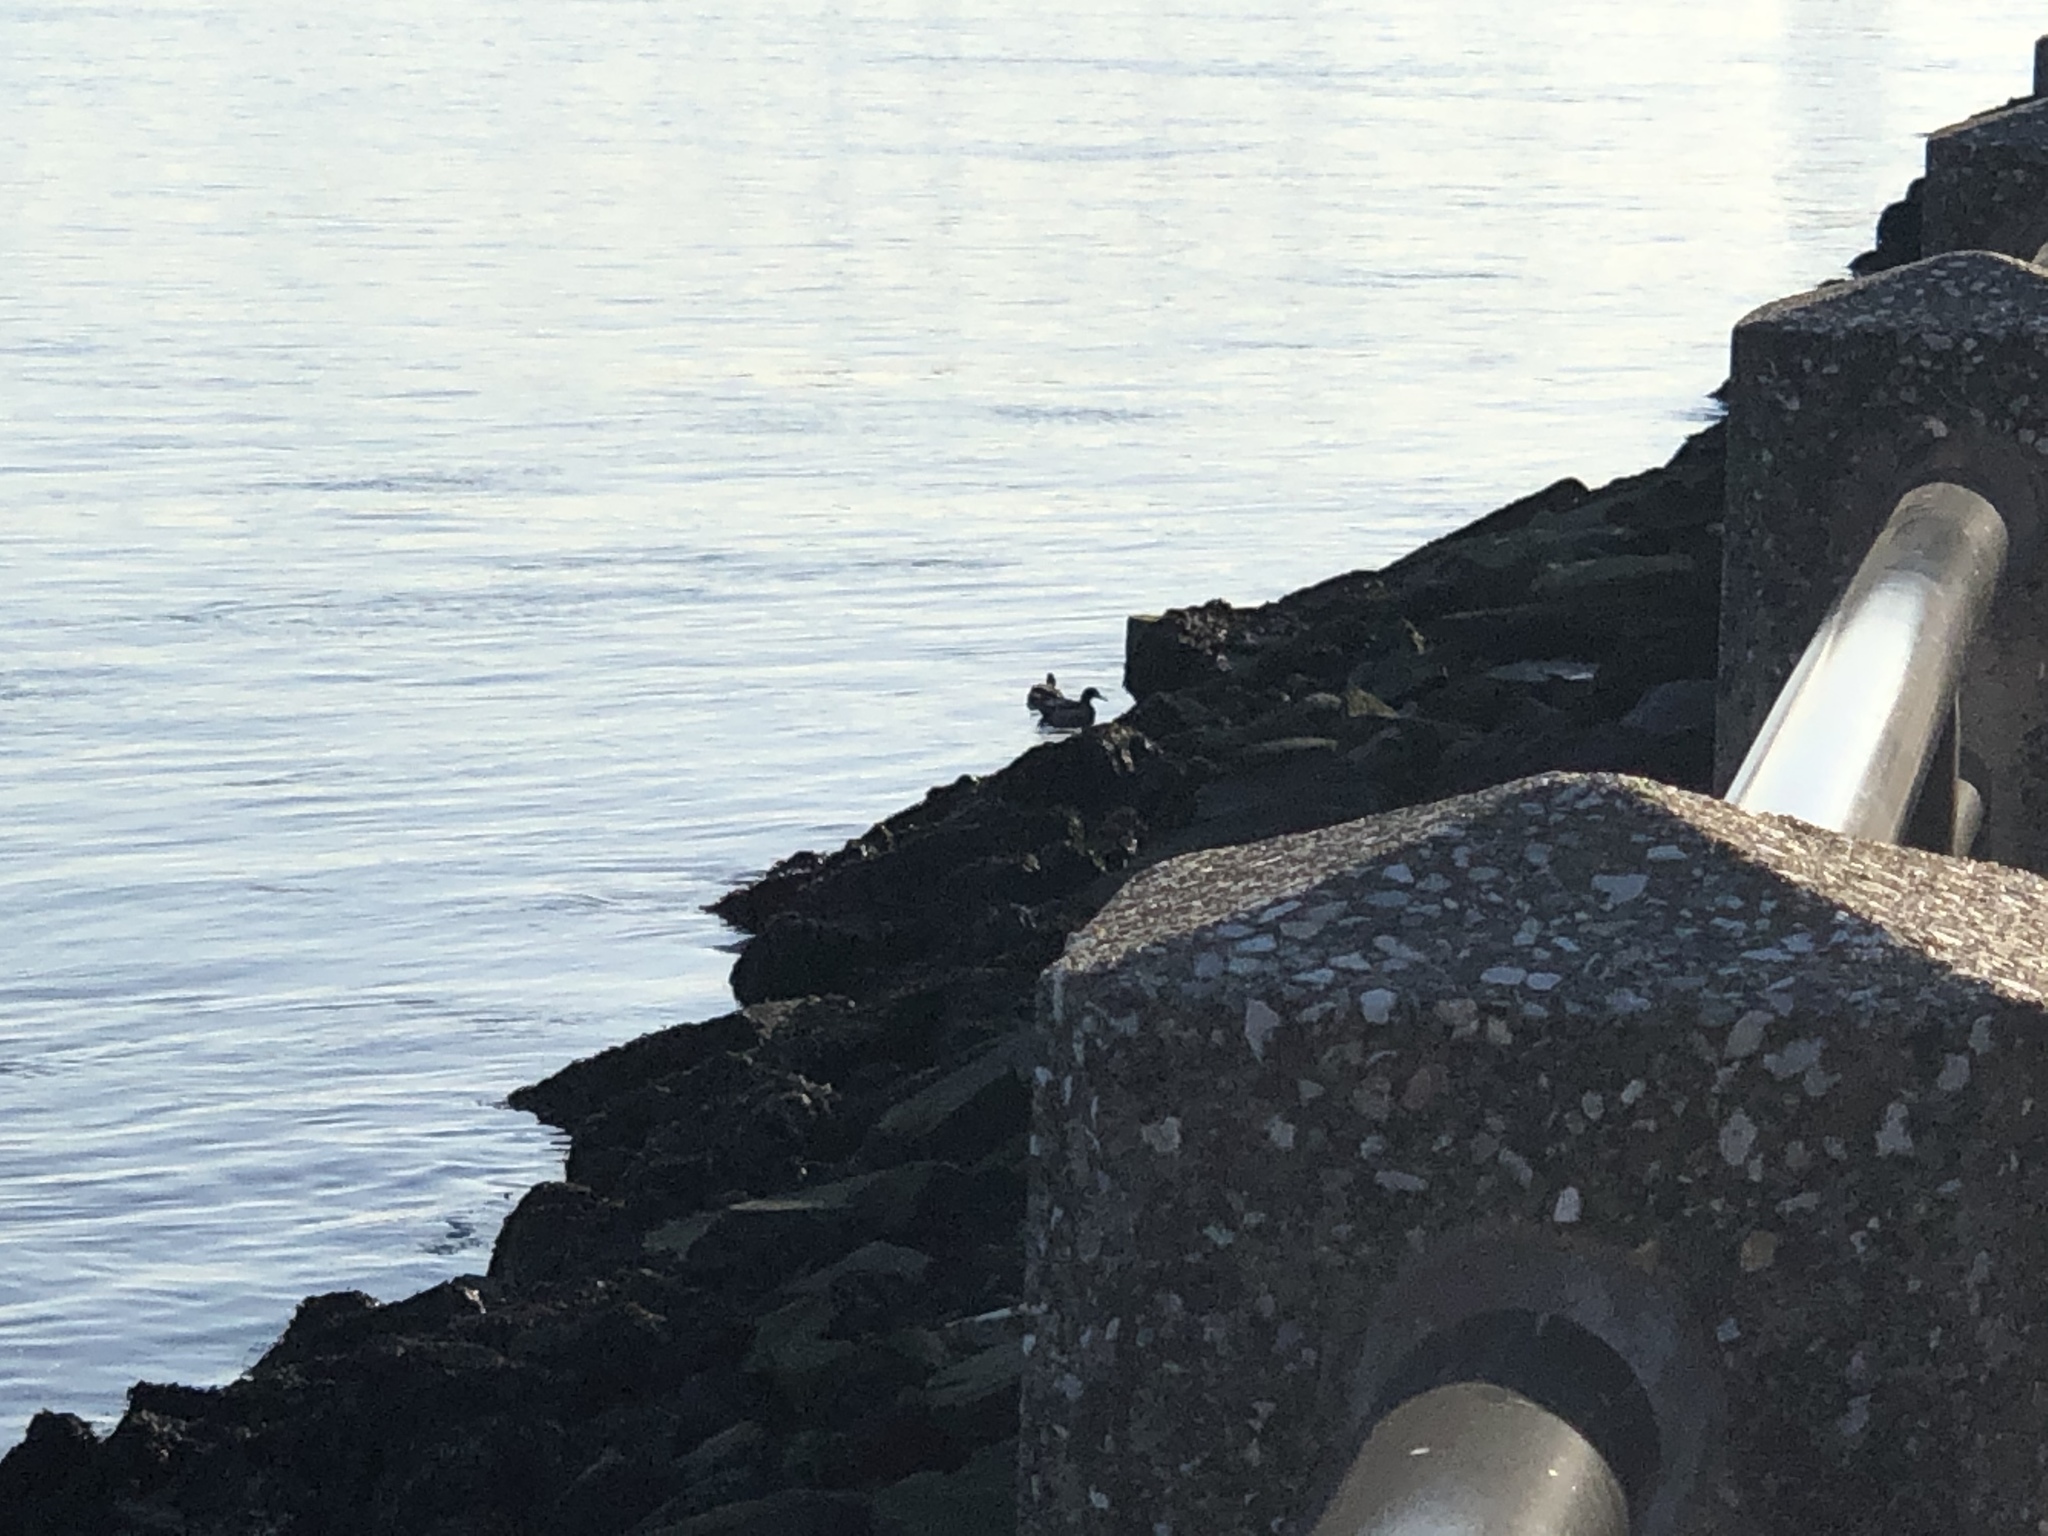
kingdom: Animalia
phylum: Chordata
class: Aves
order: Anseriformes
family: Anatidae
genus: Anas
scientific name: Anas platyrhynchos
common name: Mallard
